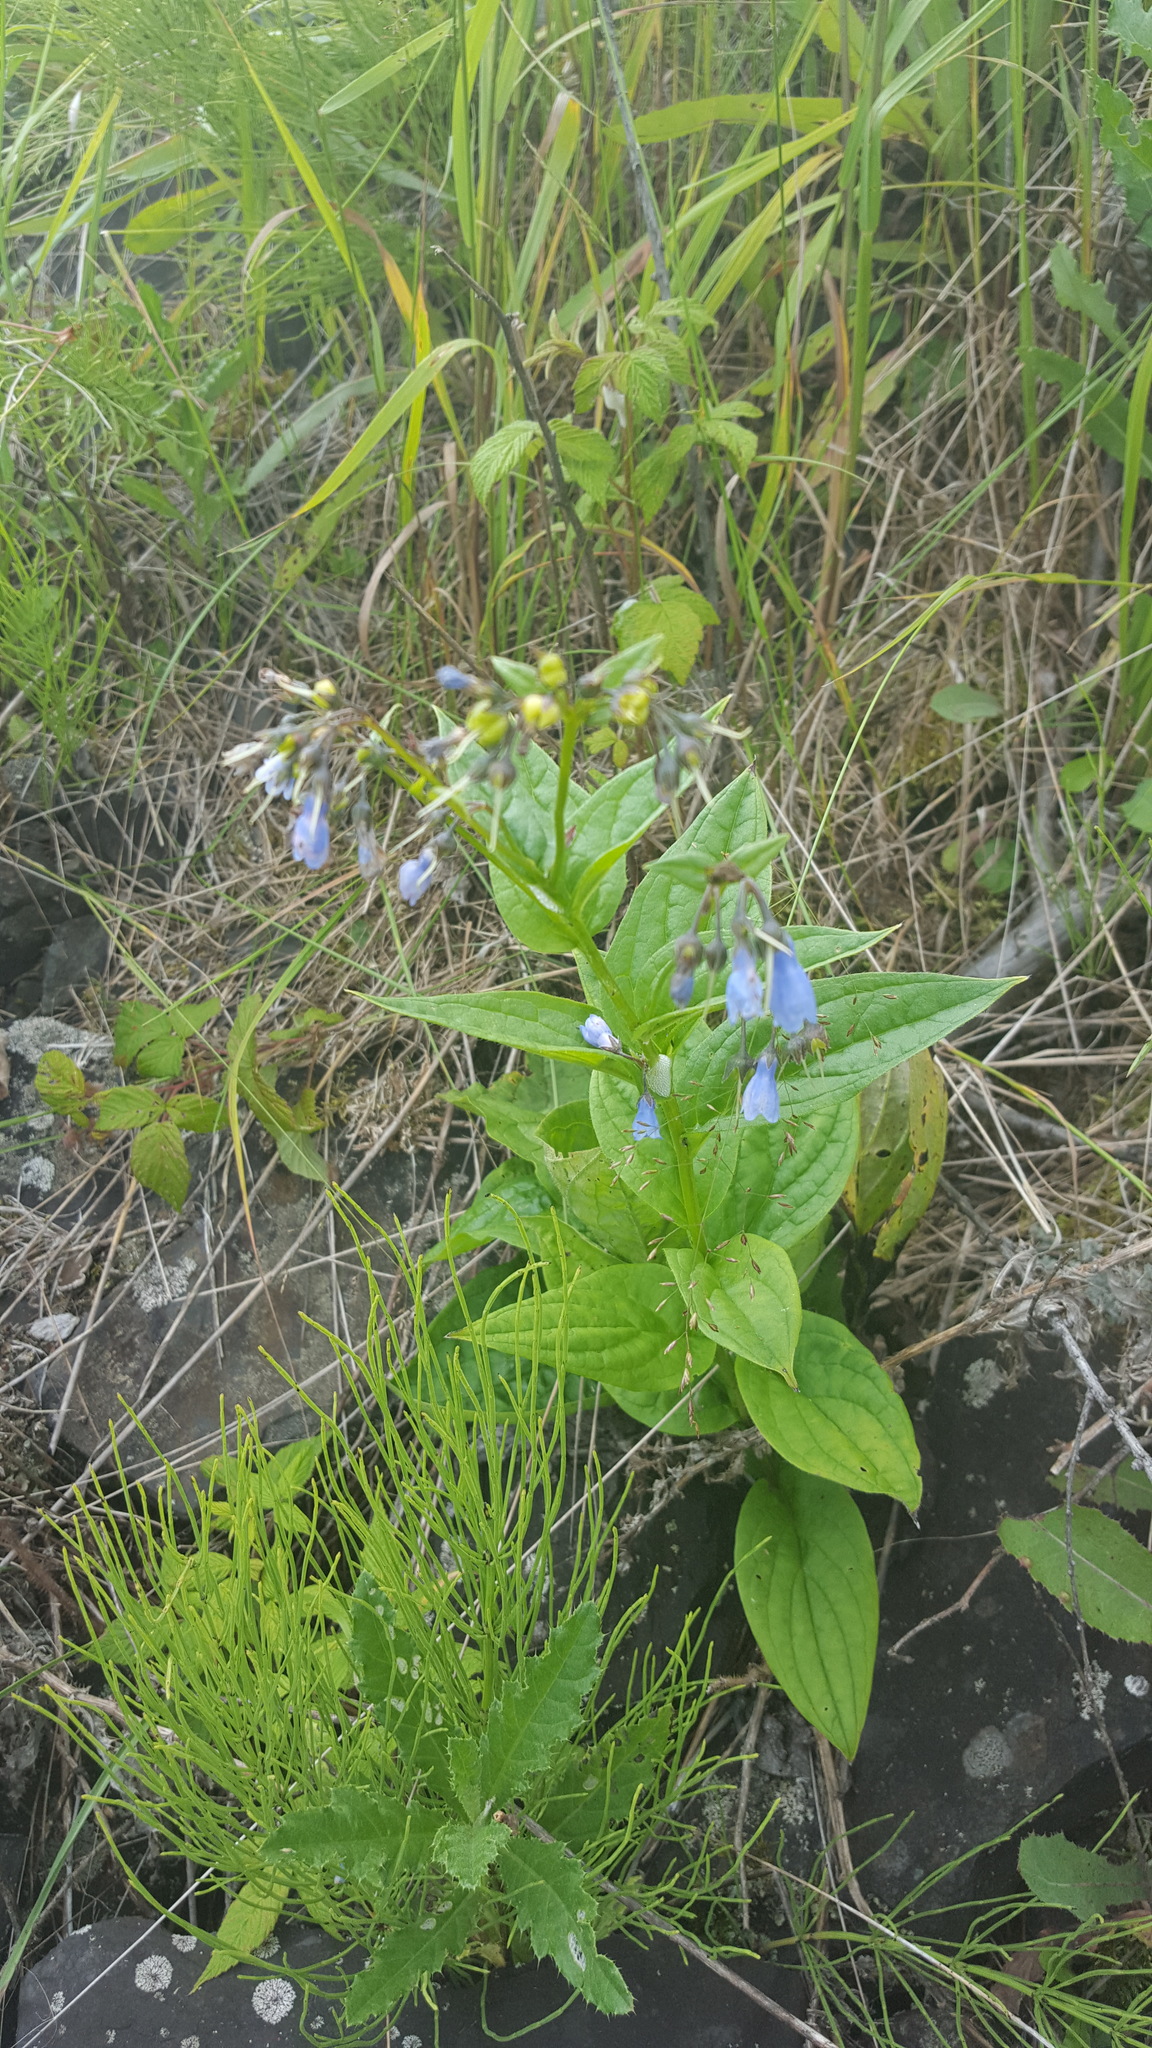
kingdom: Plantae
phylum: Tracheophyta
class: Magnoliopsida
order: Boraginales
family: Boraginaceae
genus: Mertensia
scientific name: Mertensia paniculata
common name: Panicled bluebells
